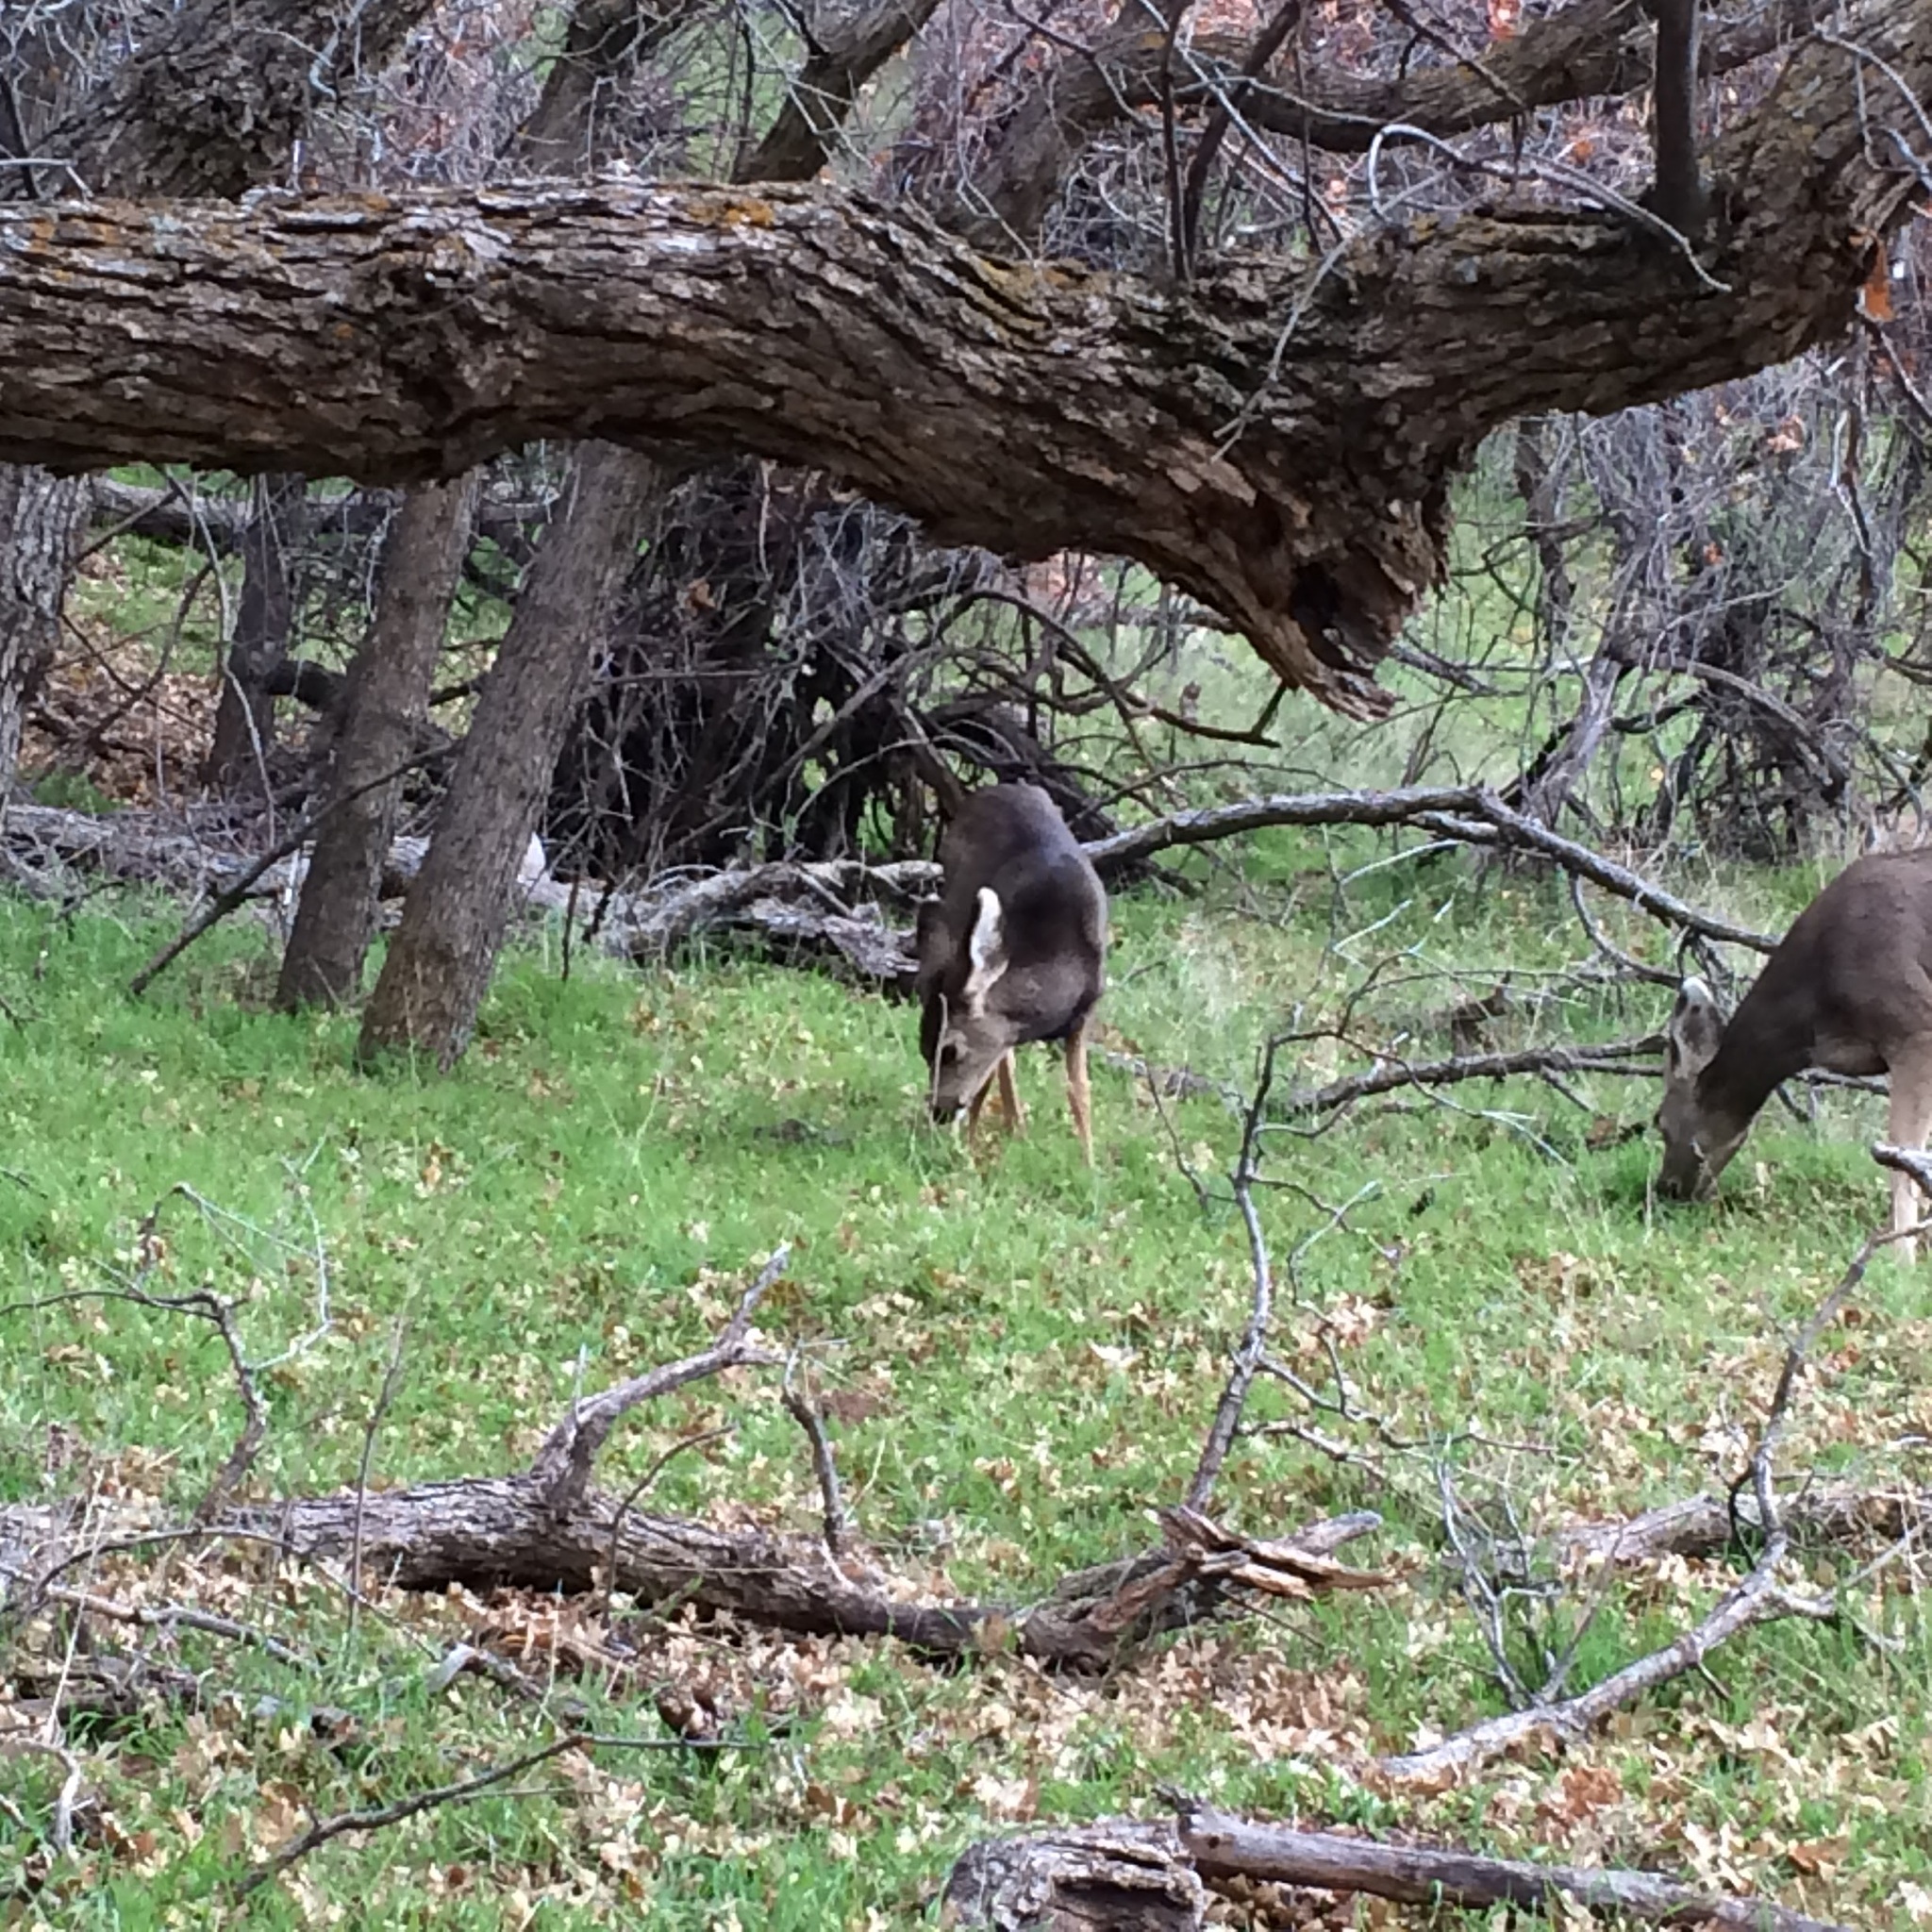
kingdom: Animalia
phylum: Chordata
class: Mammalia
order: Artiodactyla
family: Cervidae
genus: Odocoileus
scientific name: Odocoileus hemionus
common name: Mule deer
